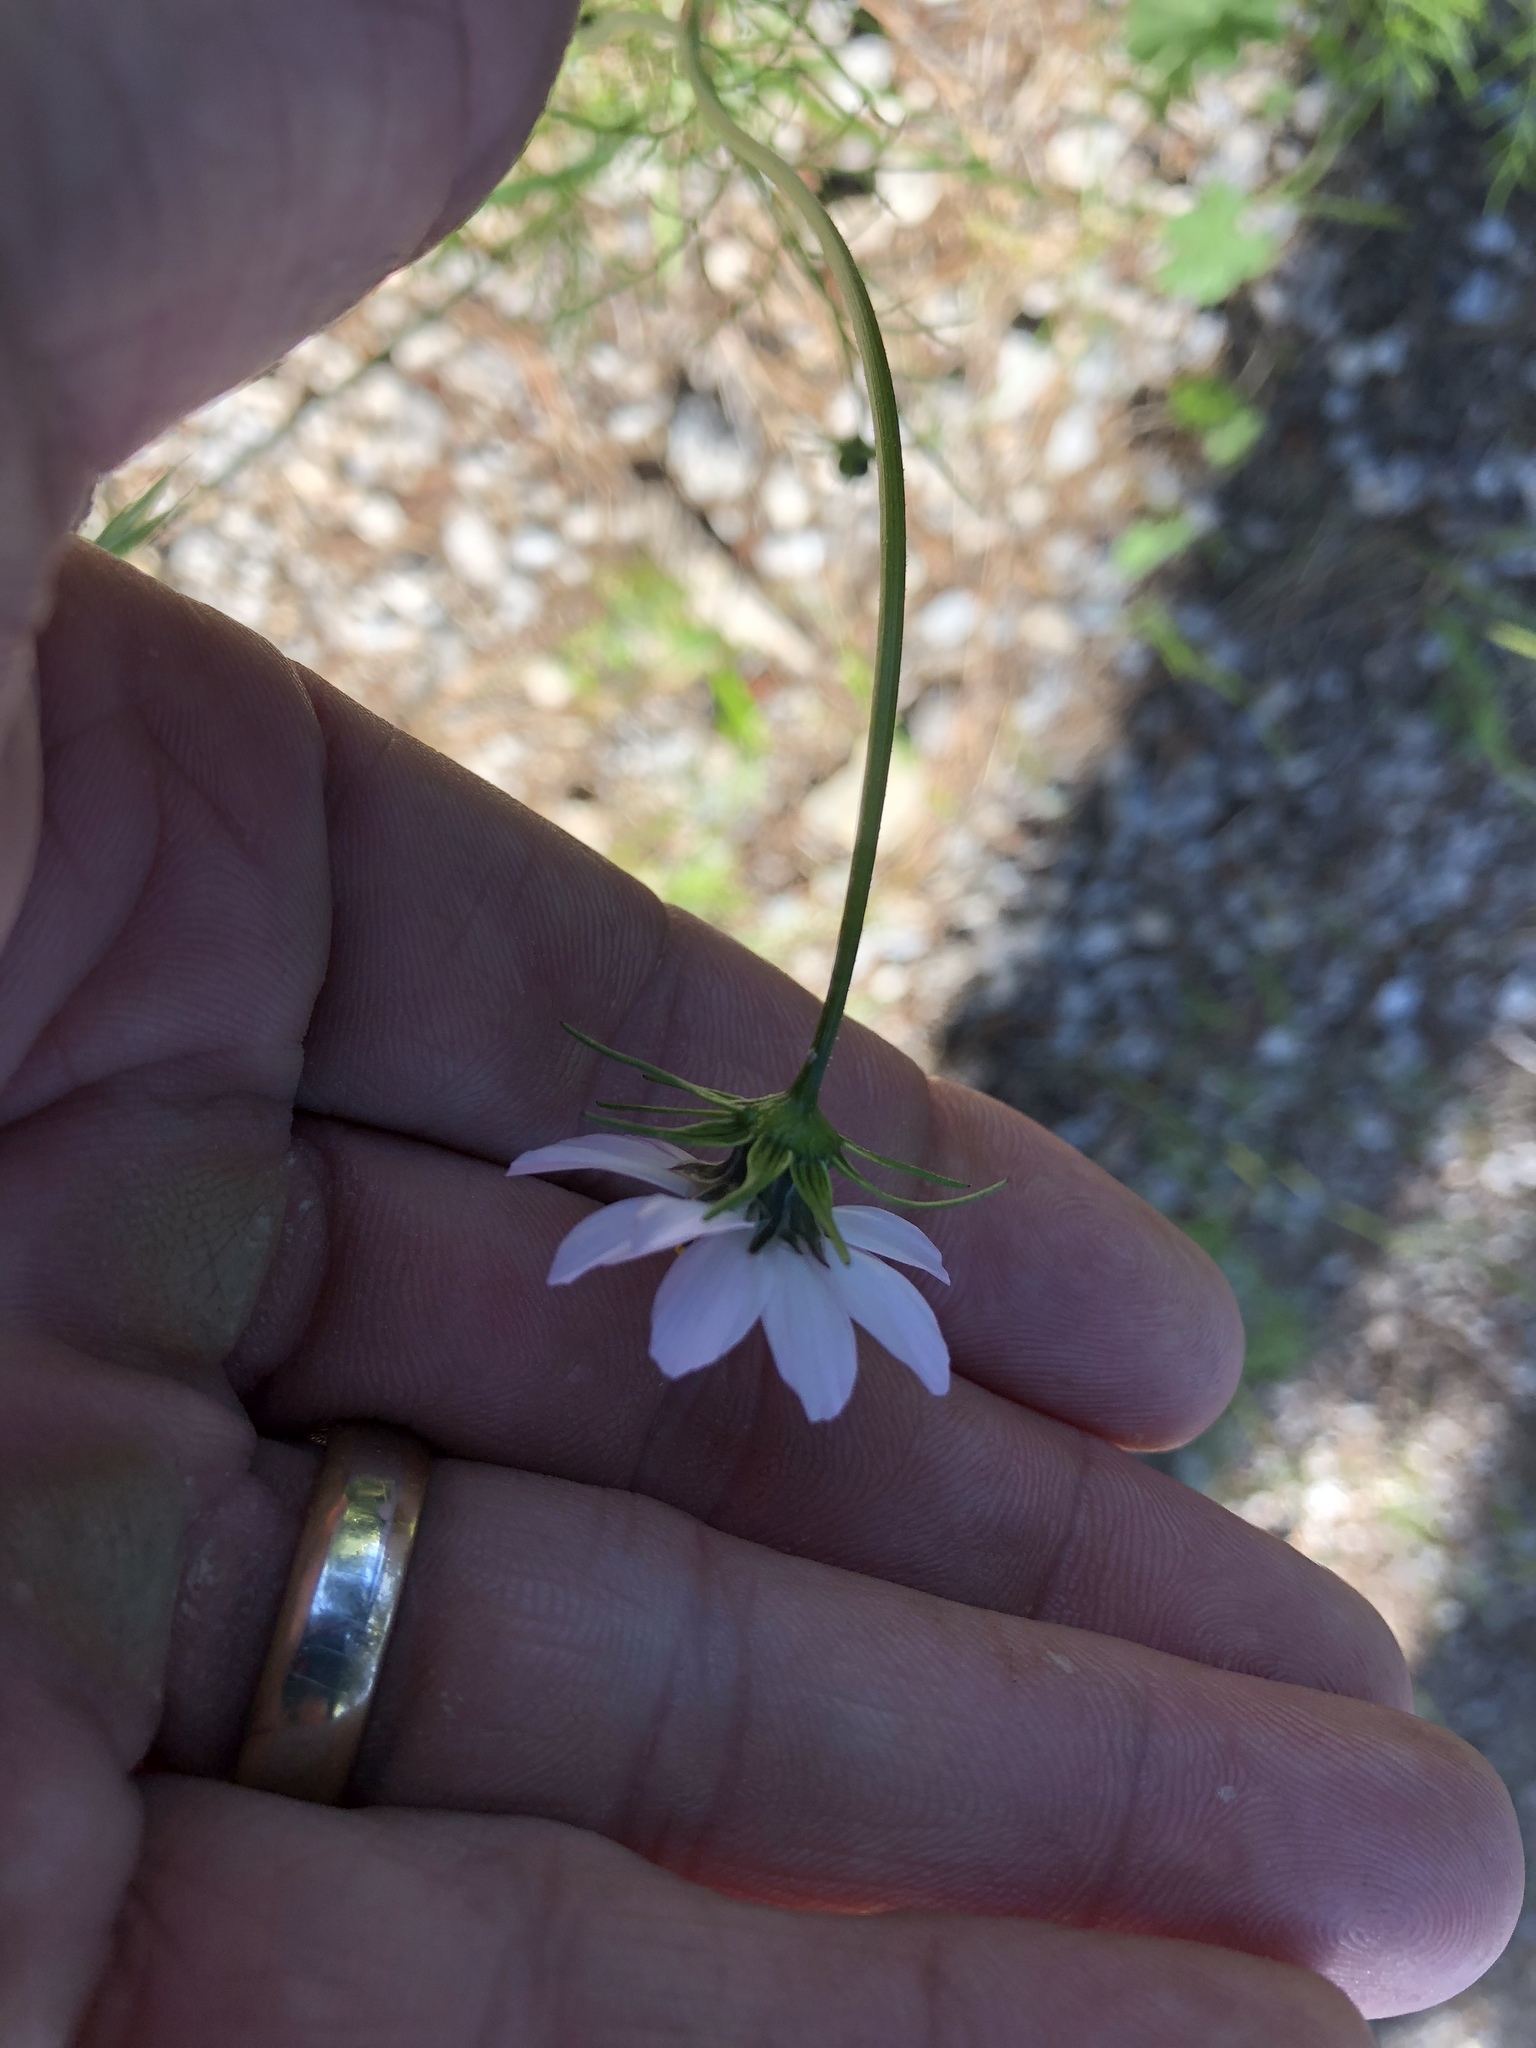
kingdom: Plantae
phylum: Tracheophyta
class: Magnoliopsida
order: Asterales
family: Asteraceae
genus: Cosmos
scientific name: Cosmos parviflorus
